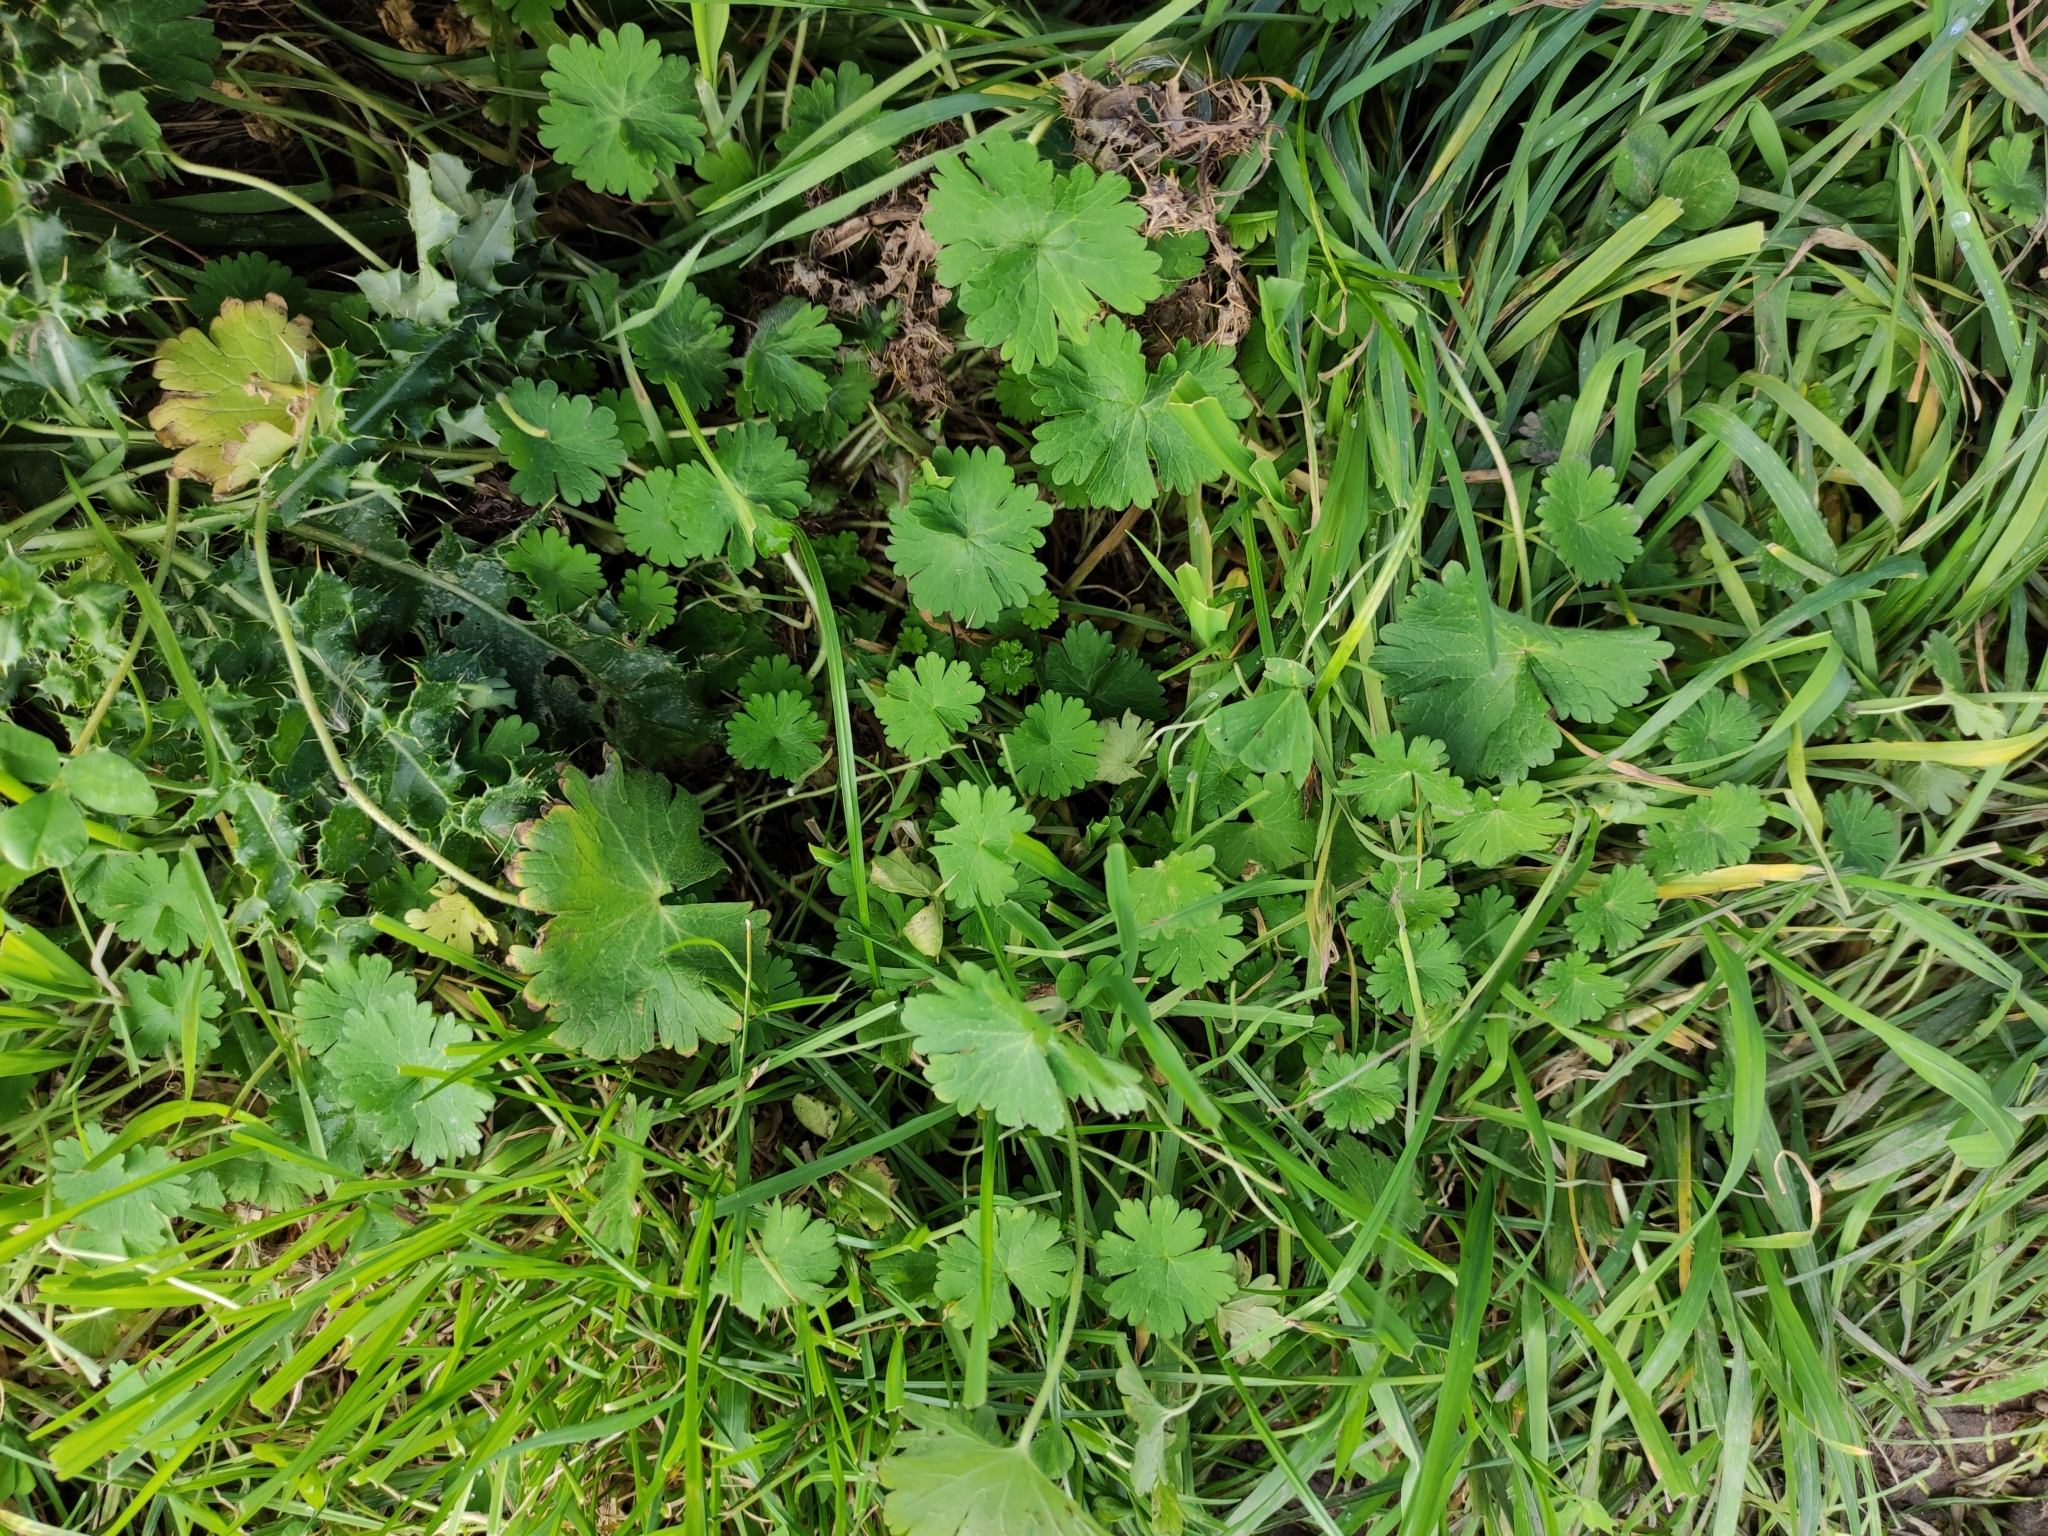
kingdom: Plantae
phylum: Tracheophyta
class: Magnoliopsida
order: Geraniales
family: Geraniaceae
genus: Geranium
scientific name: Geranium molle
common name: Dove's-foot crane's-bill
